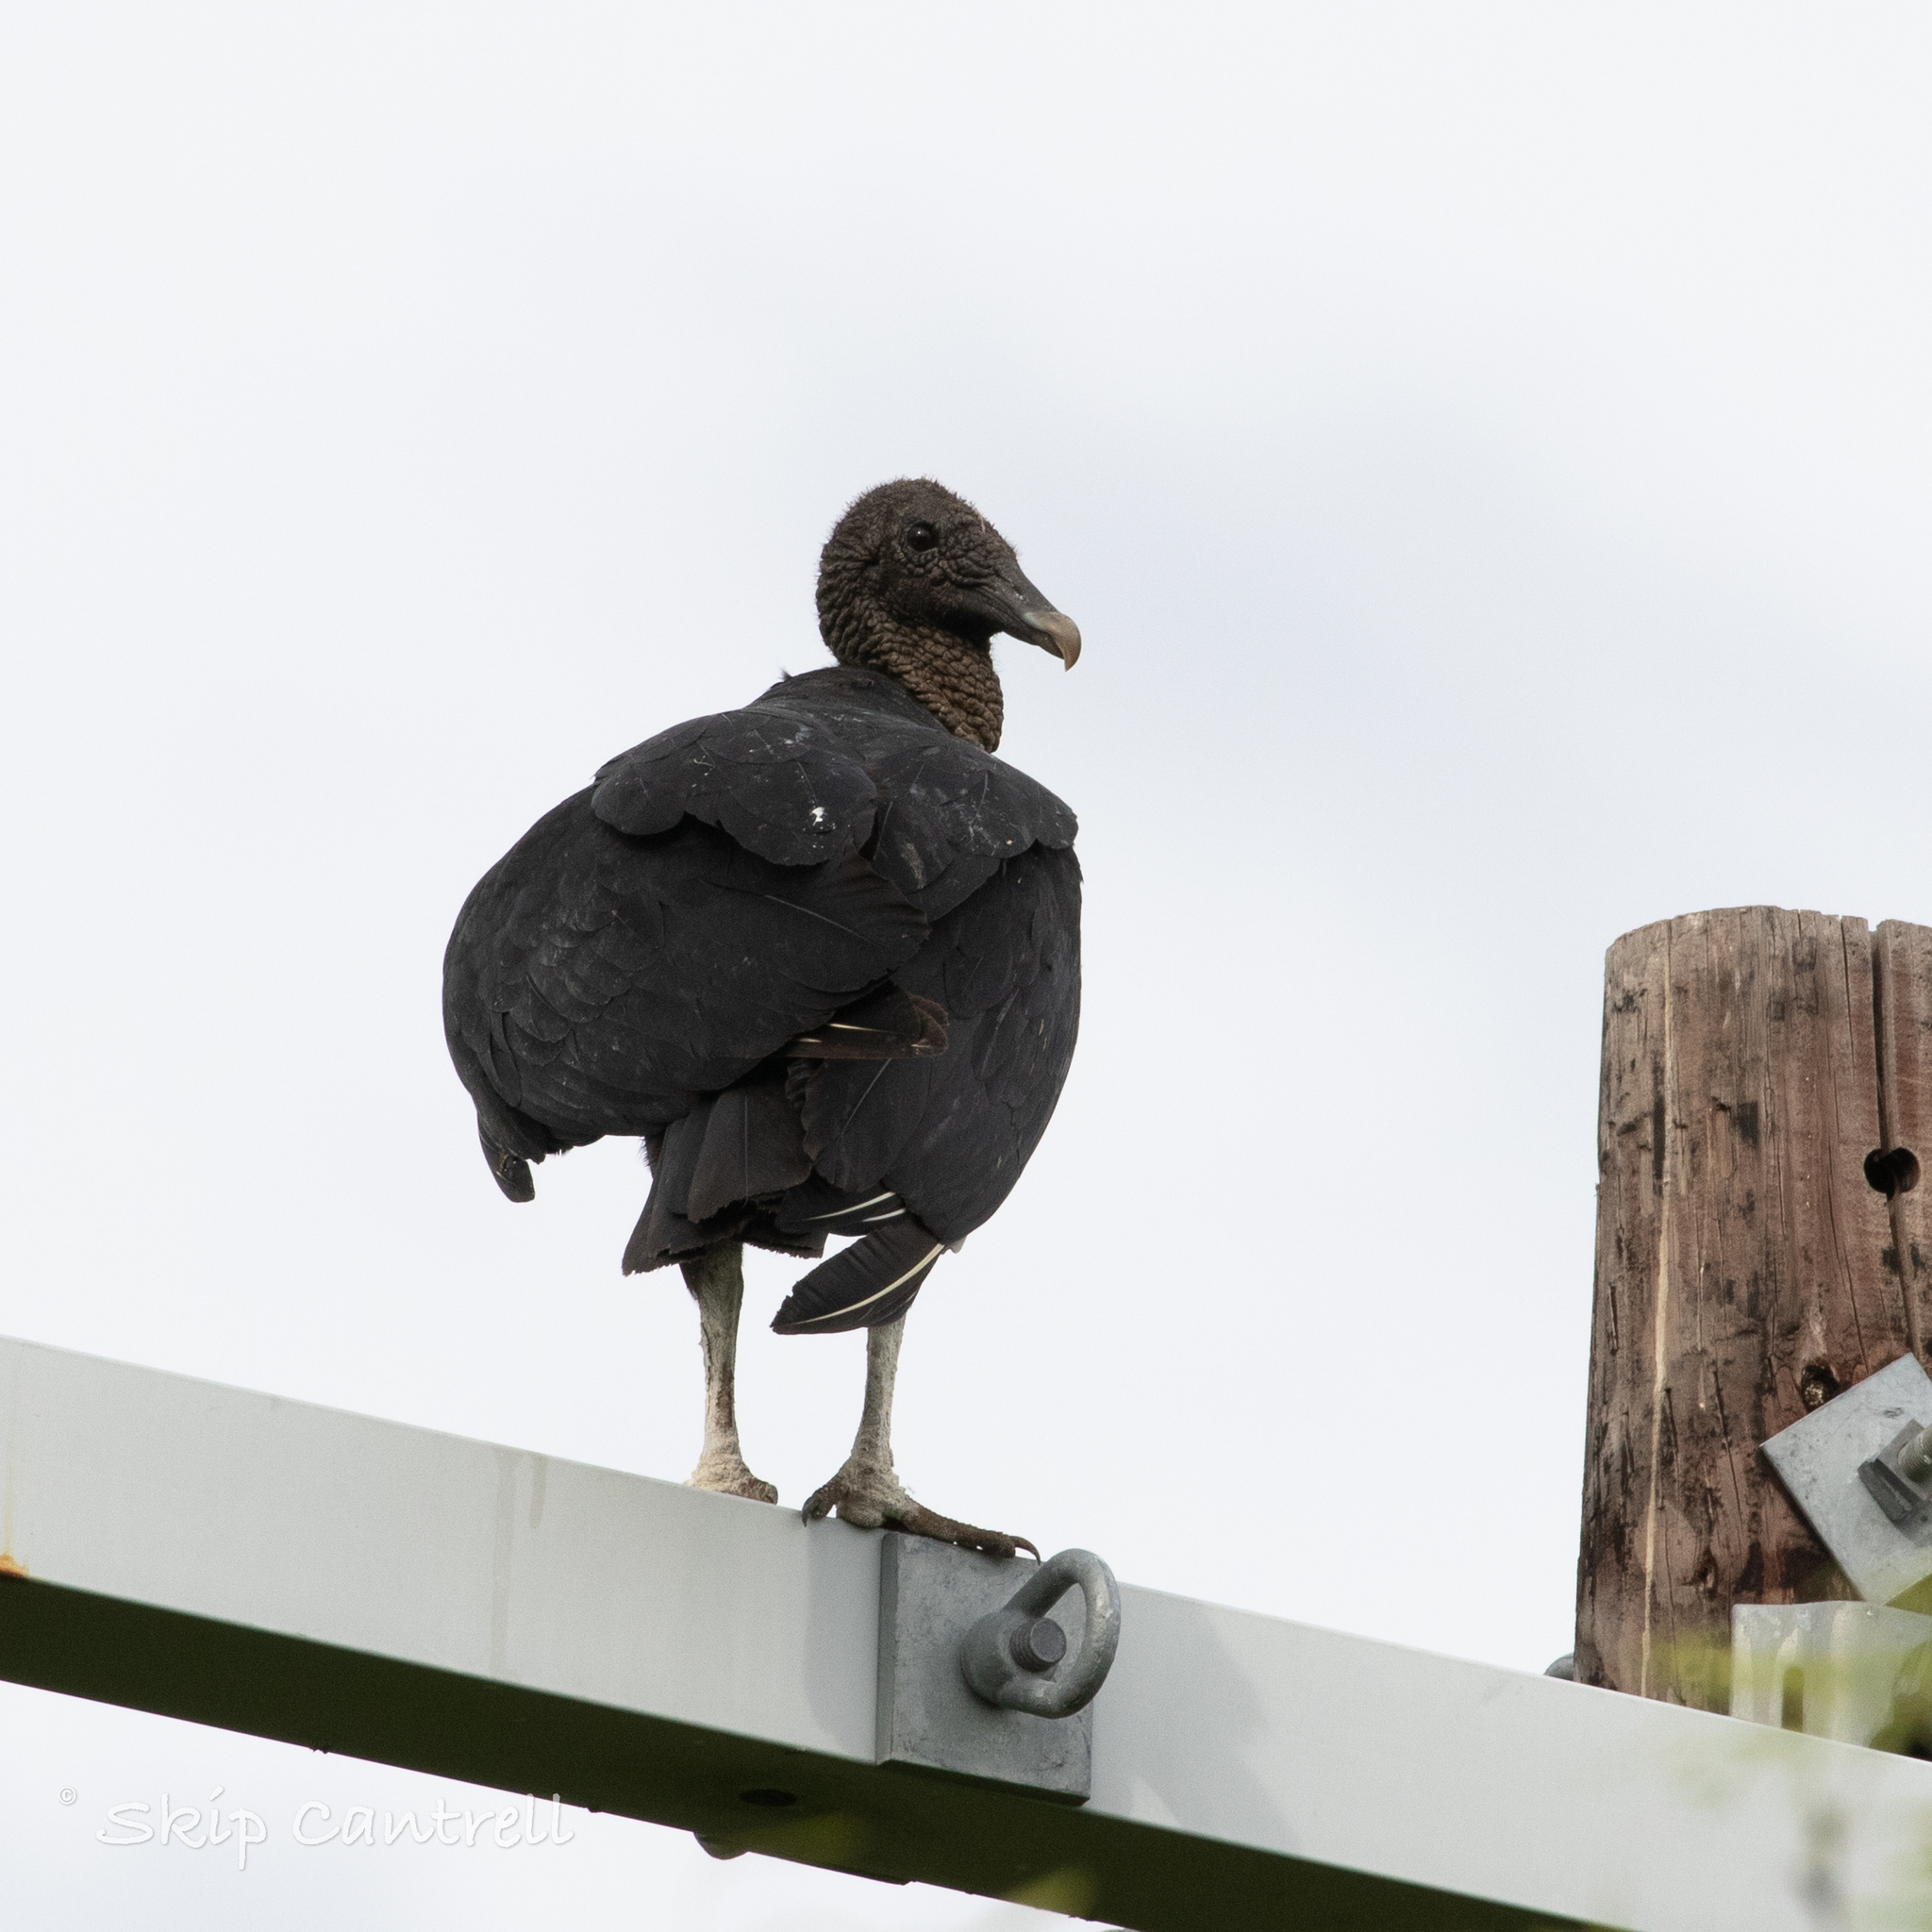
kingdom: Animalia
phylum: Chordata
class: Aves
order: Accipitriformes
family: Cathartidae
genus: Coragyps
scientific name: Coragyps atratus
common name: Black vulture
